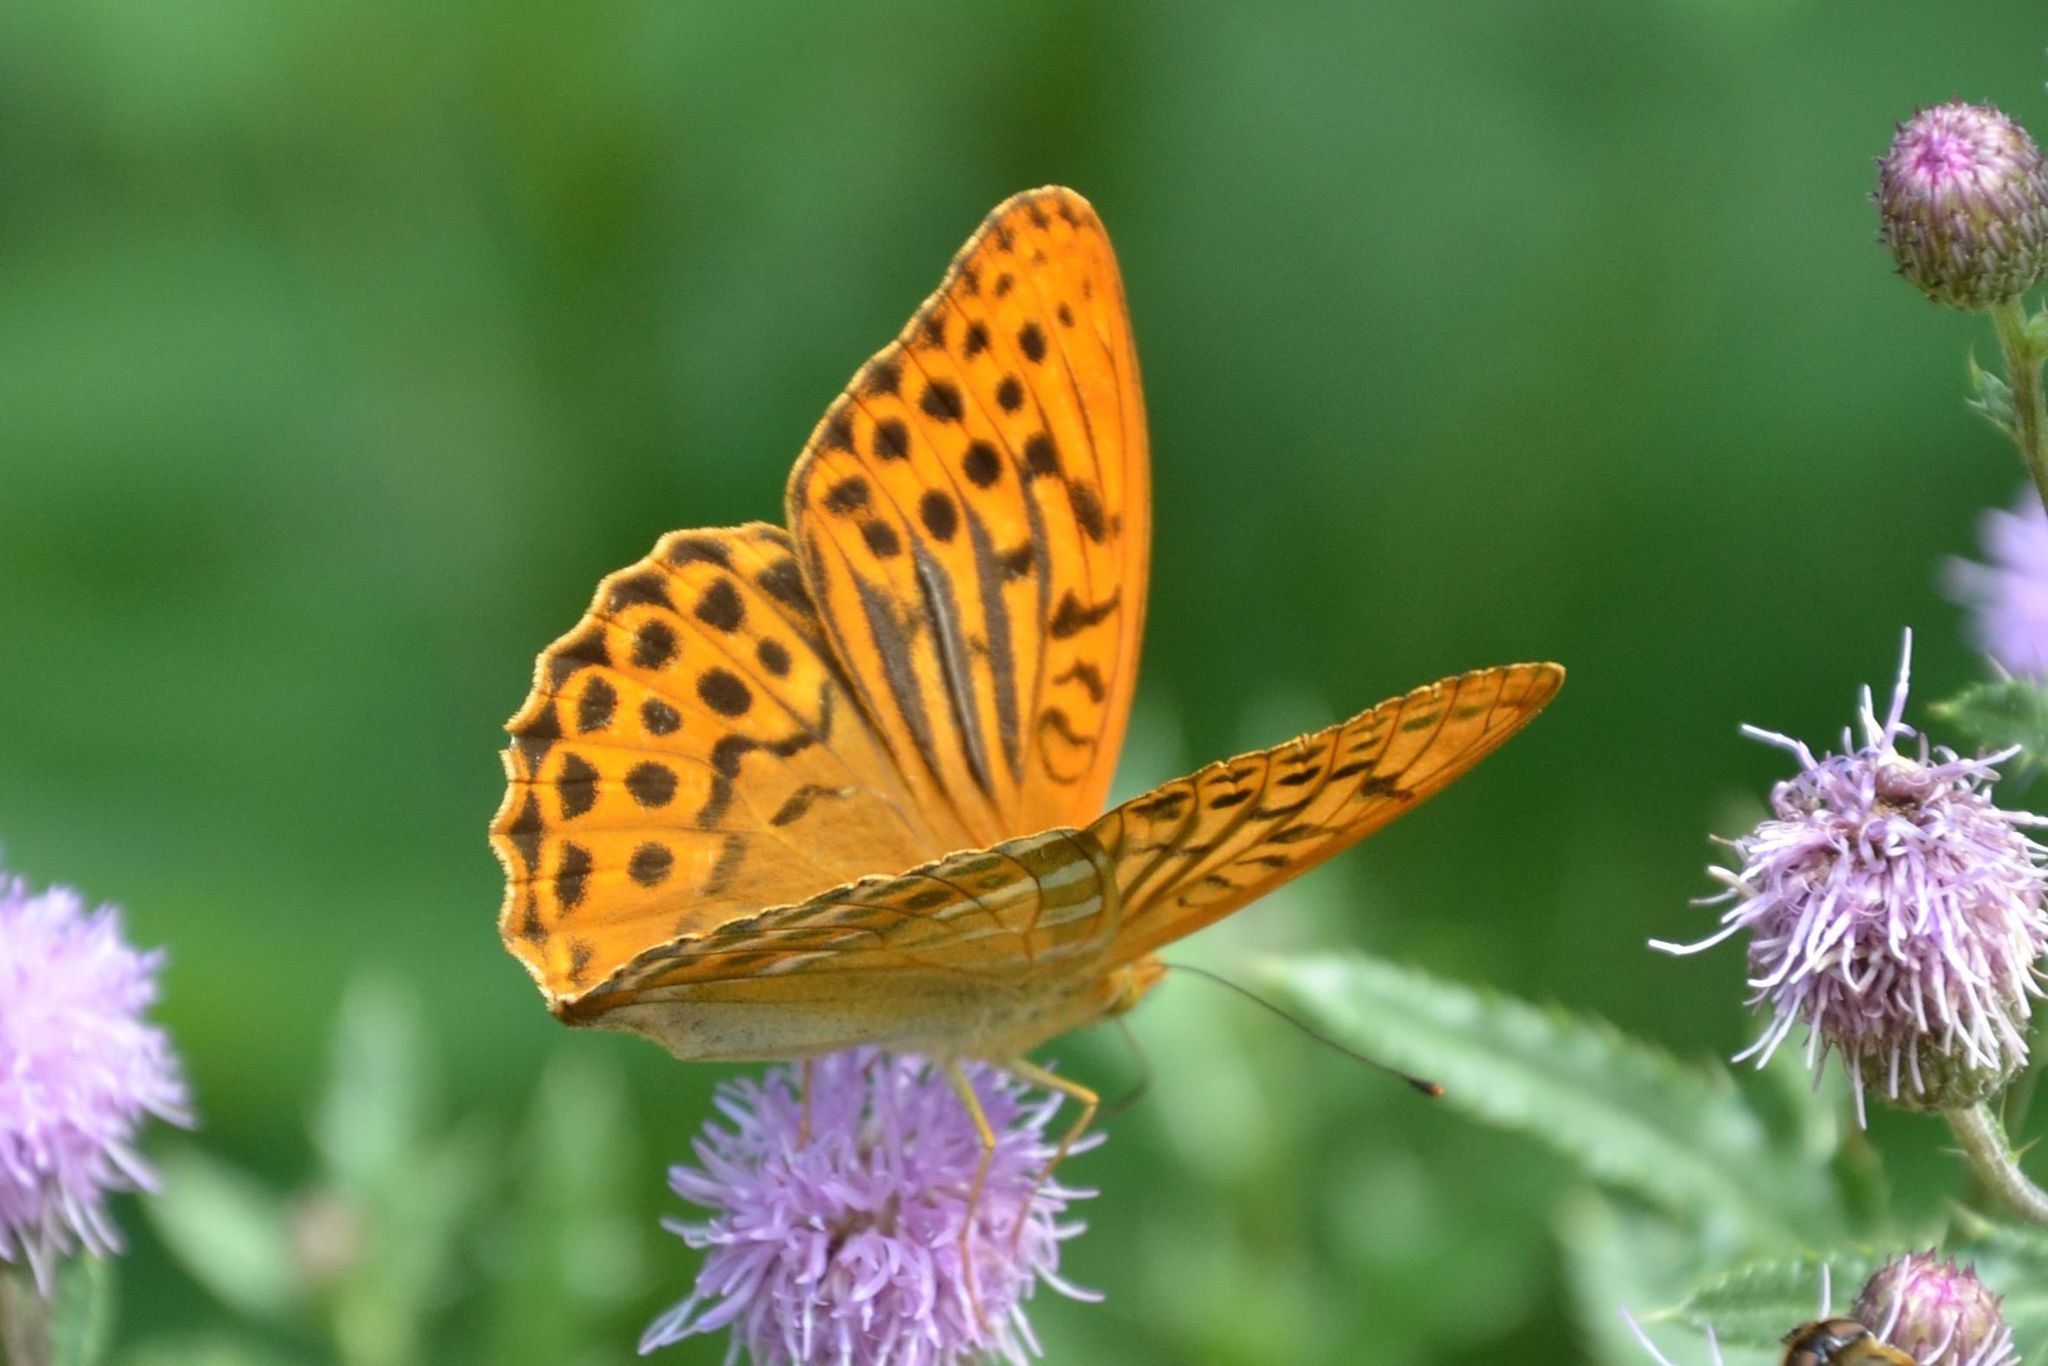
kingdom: Animalia
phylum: Arthropoda
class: Insecta
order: Lepidoptera
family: Nymphalidae
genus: Argynnis
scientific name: Argynnis paphia
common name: Silver-washed fritillary
